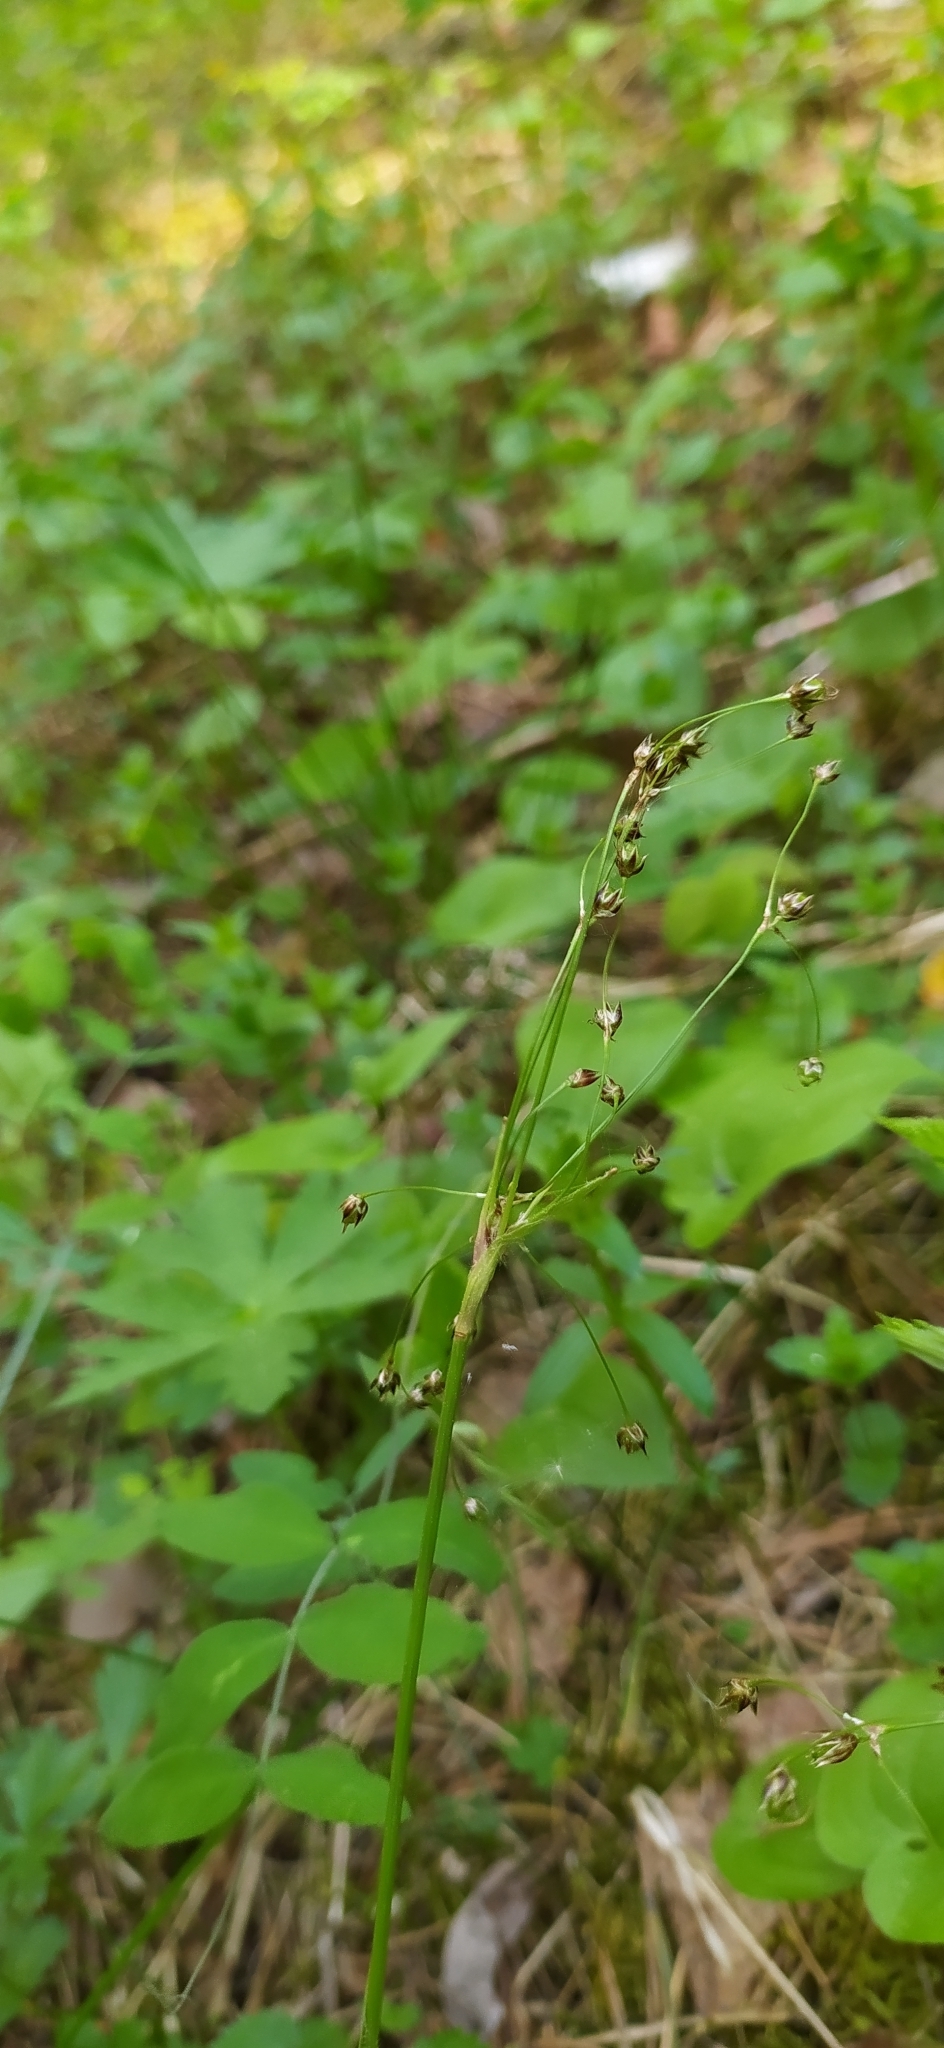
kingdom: Plantae
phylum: Tracheophyta
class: Liliopsida
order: Poales
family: Juncaceae
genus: Luzula
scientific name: Luzula pilosa
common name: Hairy wood-rush
